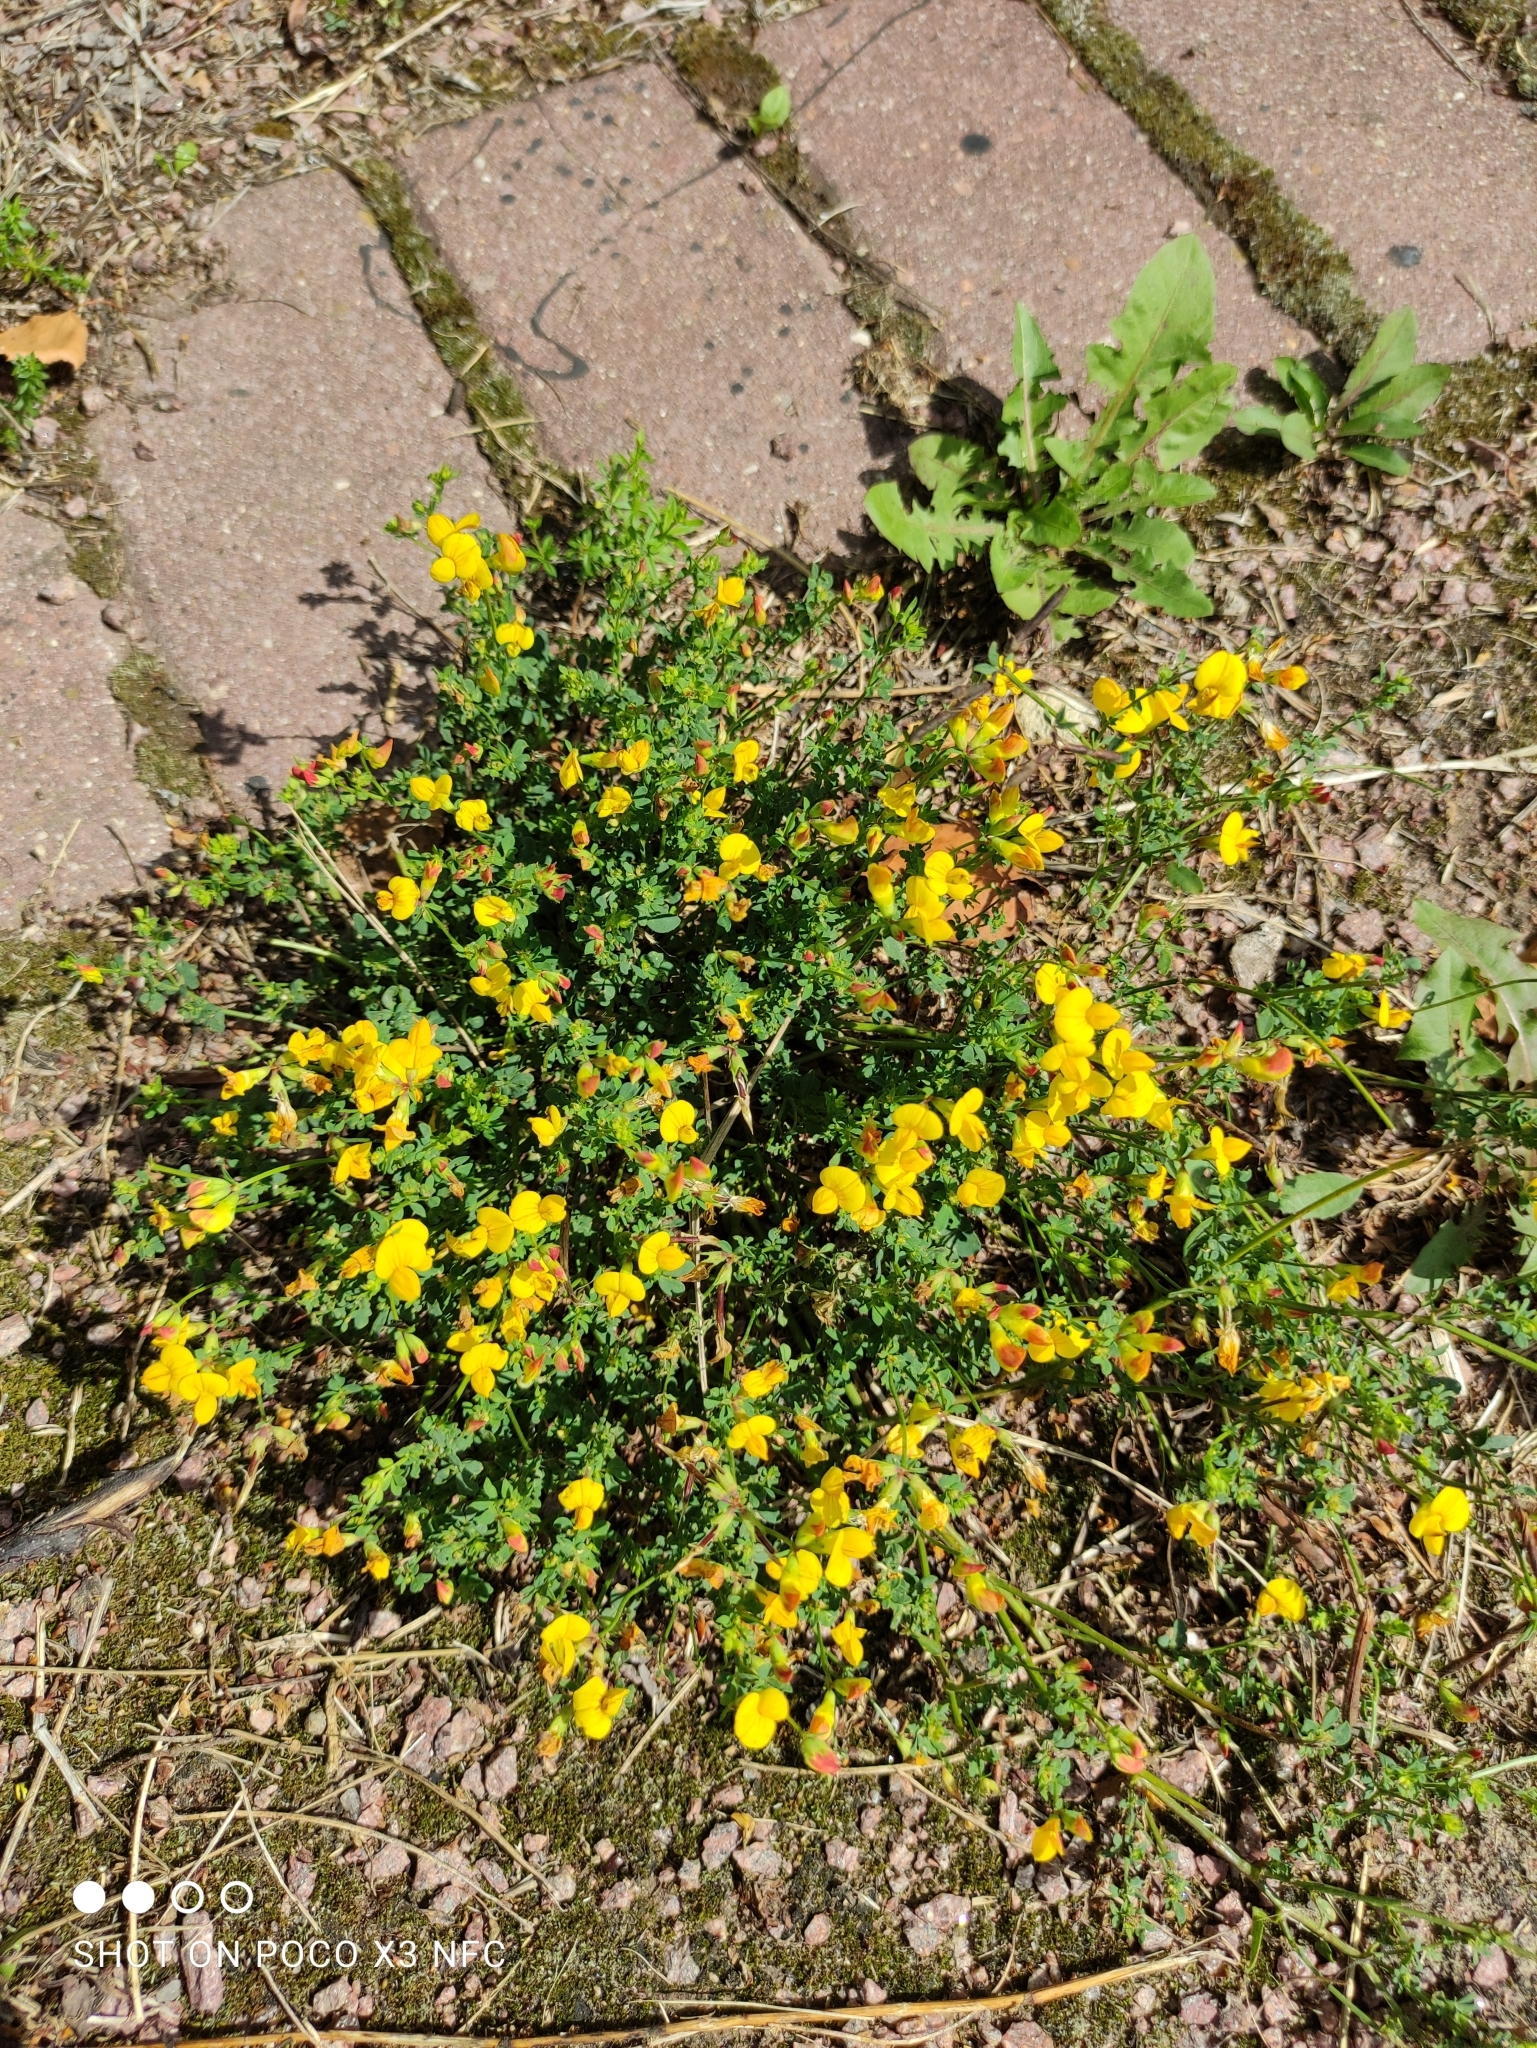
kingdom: Plantae
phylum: Tracheophyta
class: Magnoliopsida
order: Fabales
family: Fabaceae
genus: Lotus
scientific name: Lotus corniculatus
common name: Common bird's-foot-trefoil
